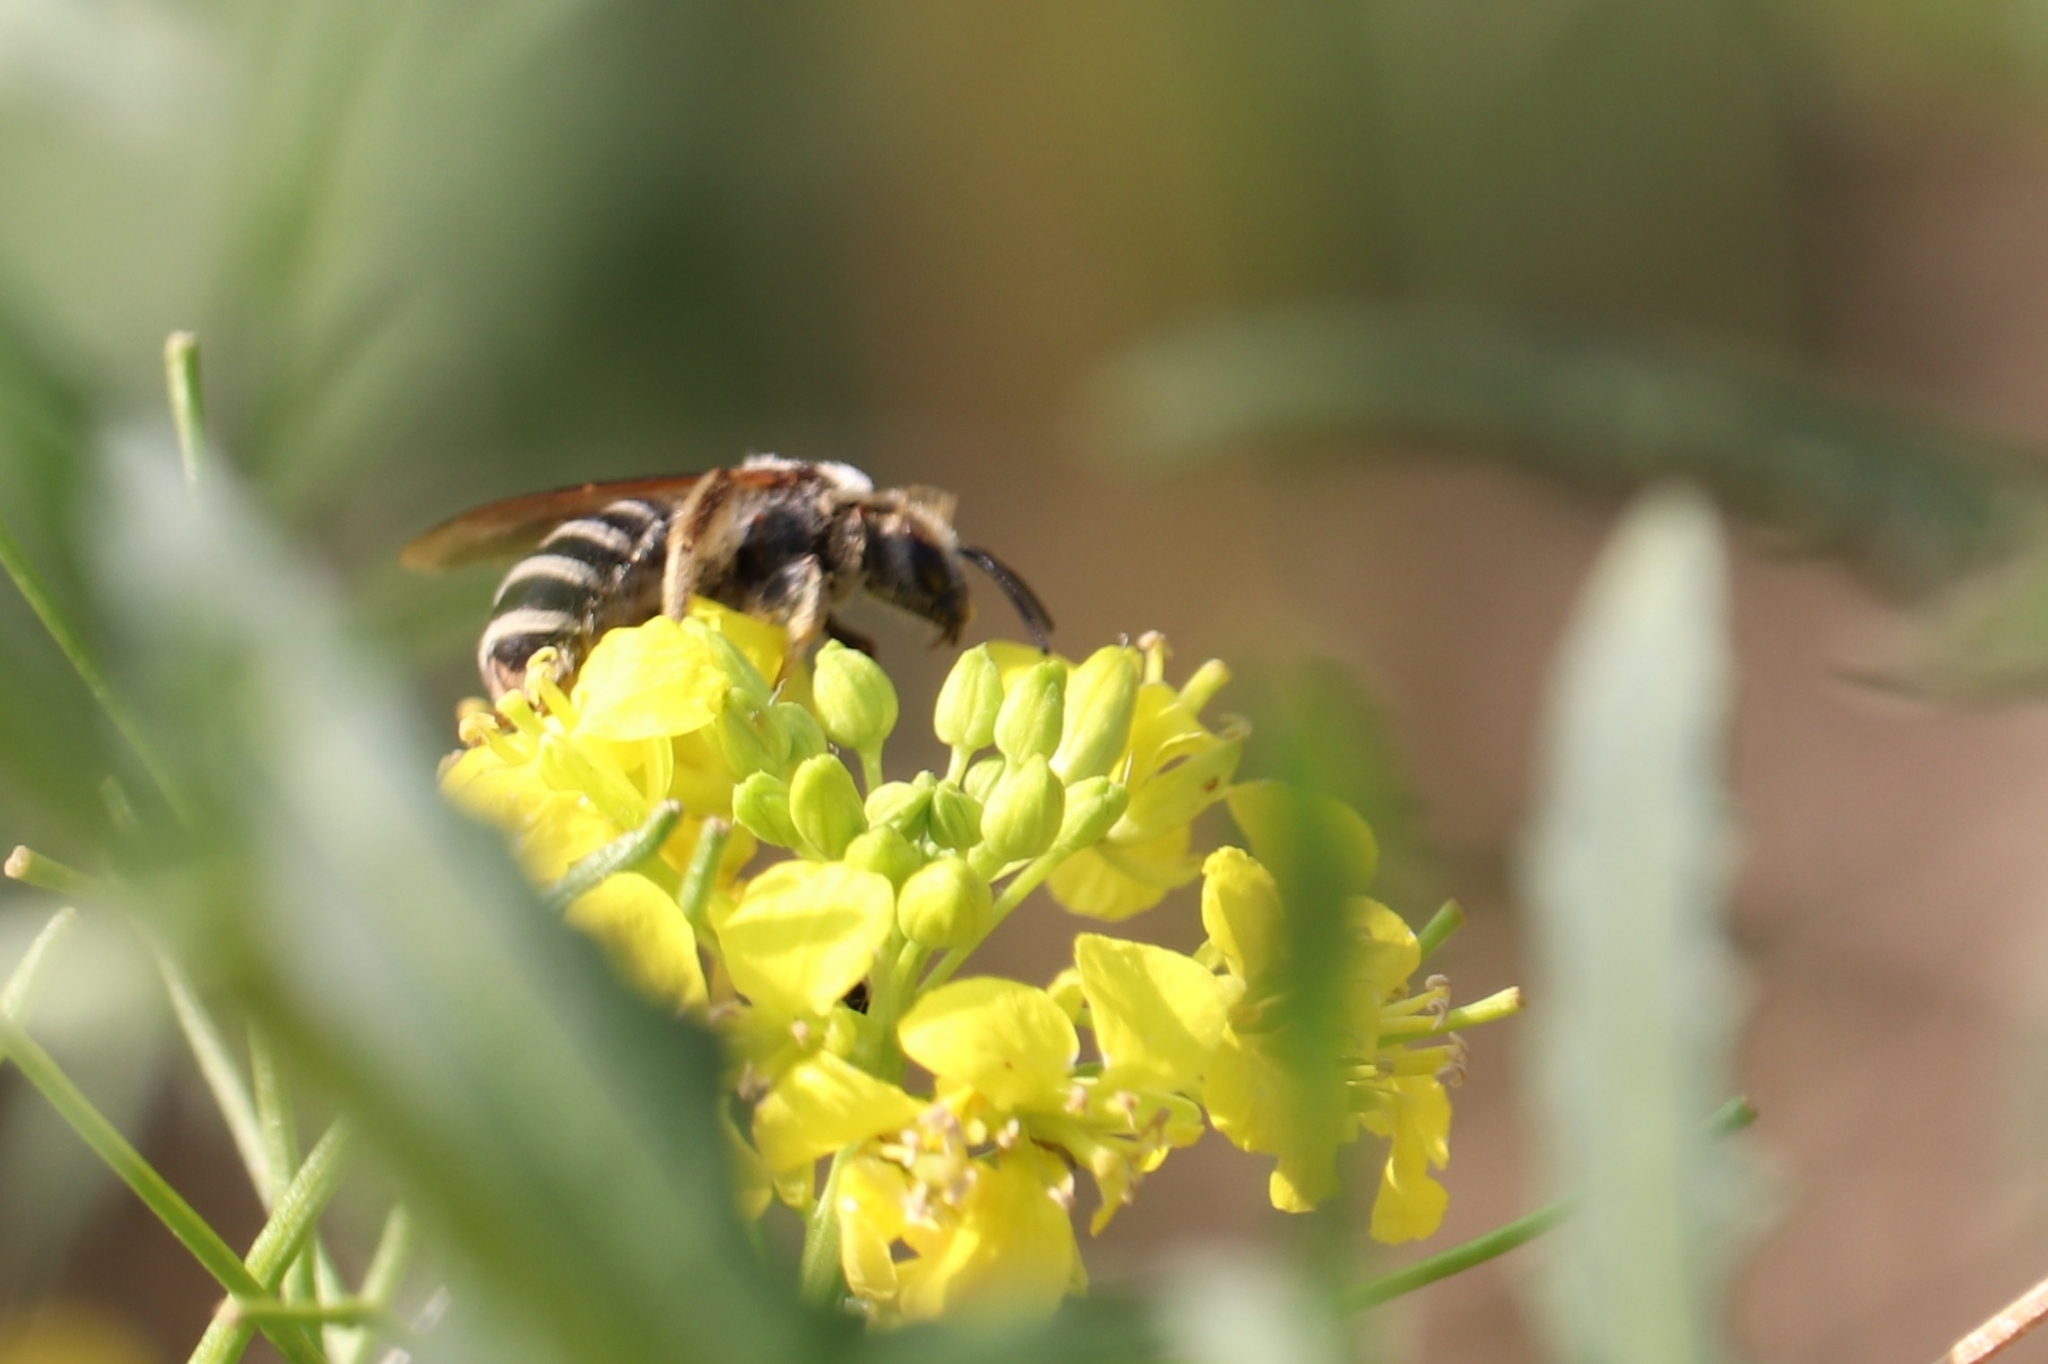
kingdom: Animalia
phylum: Arthropoda
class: Insecta
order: Hymenoptera
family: Halictidae
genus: Halictus
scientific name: Halictus farinosus
